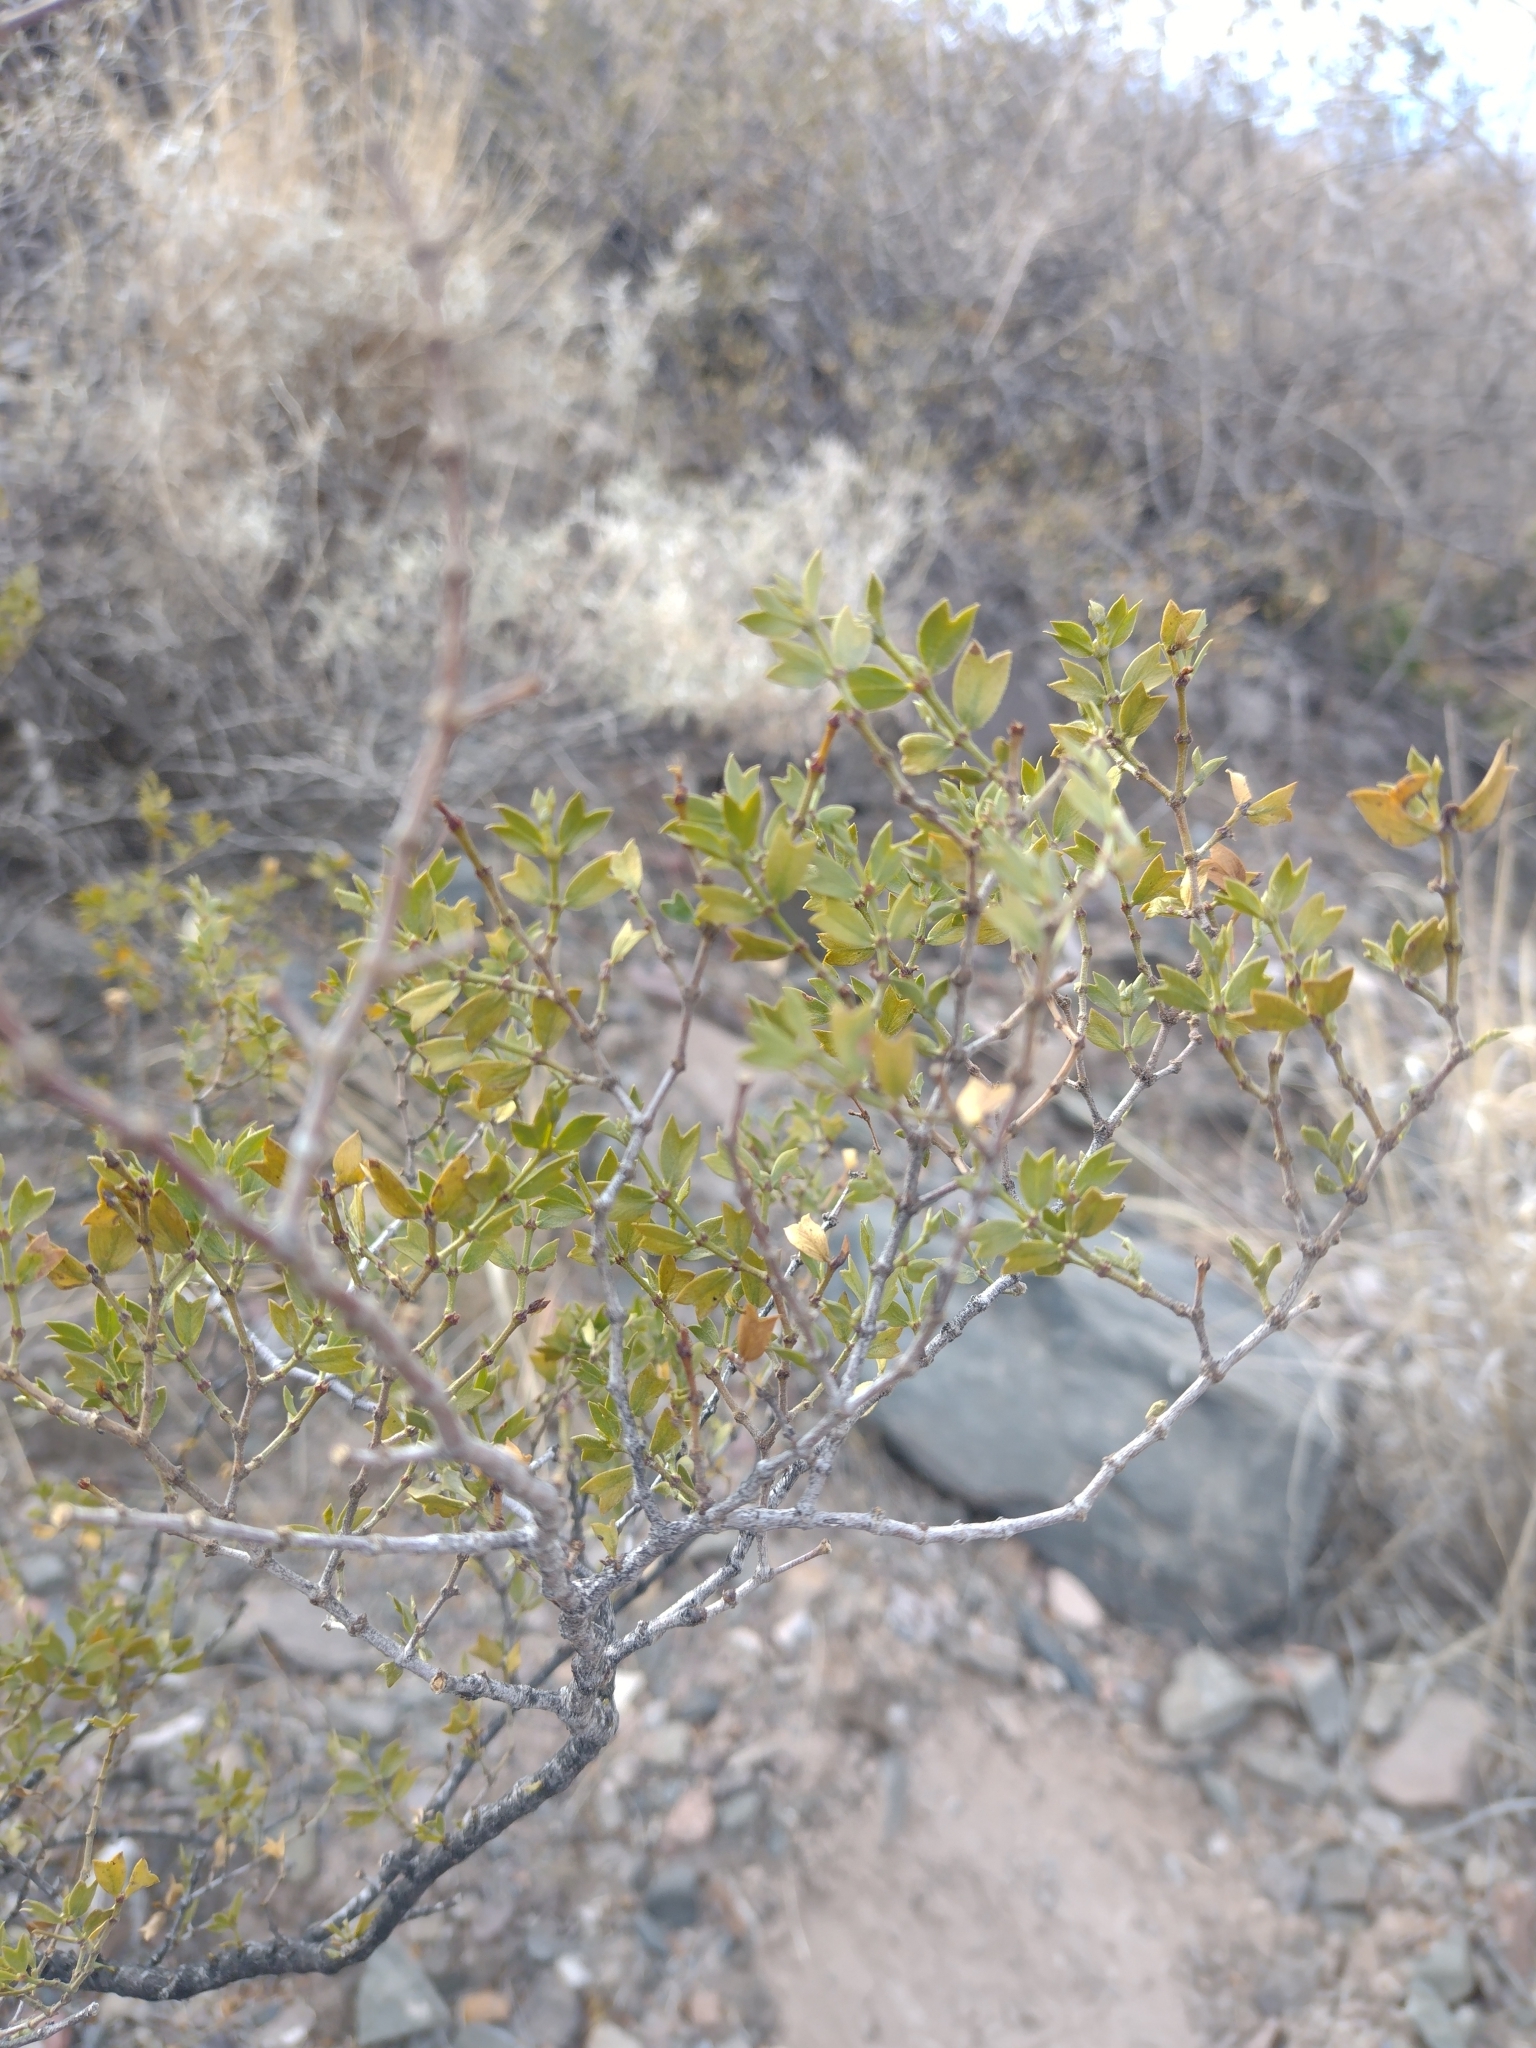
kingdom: Plantae
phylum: Tracheophyta
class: Magnoliopsida
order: Zygophyllales
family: Zygophyllaceae
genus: Larrea
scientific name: Larrea cuneifolia
